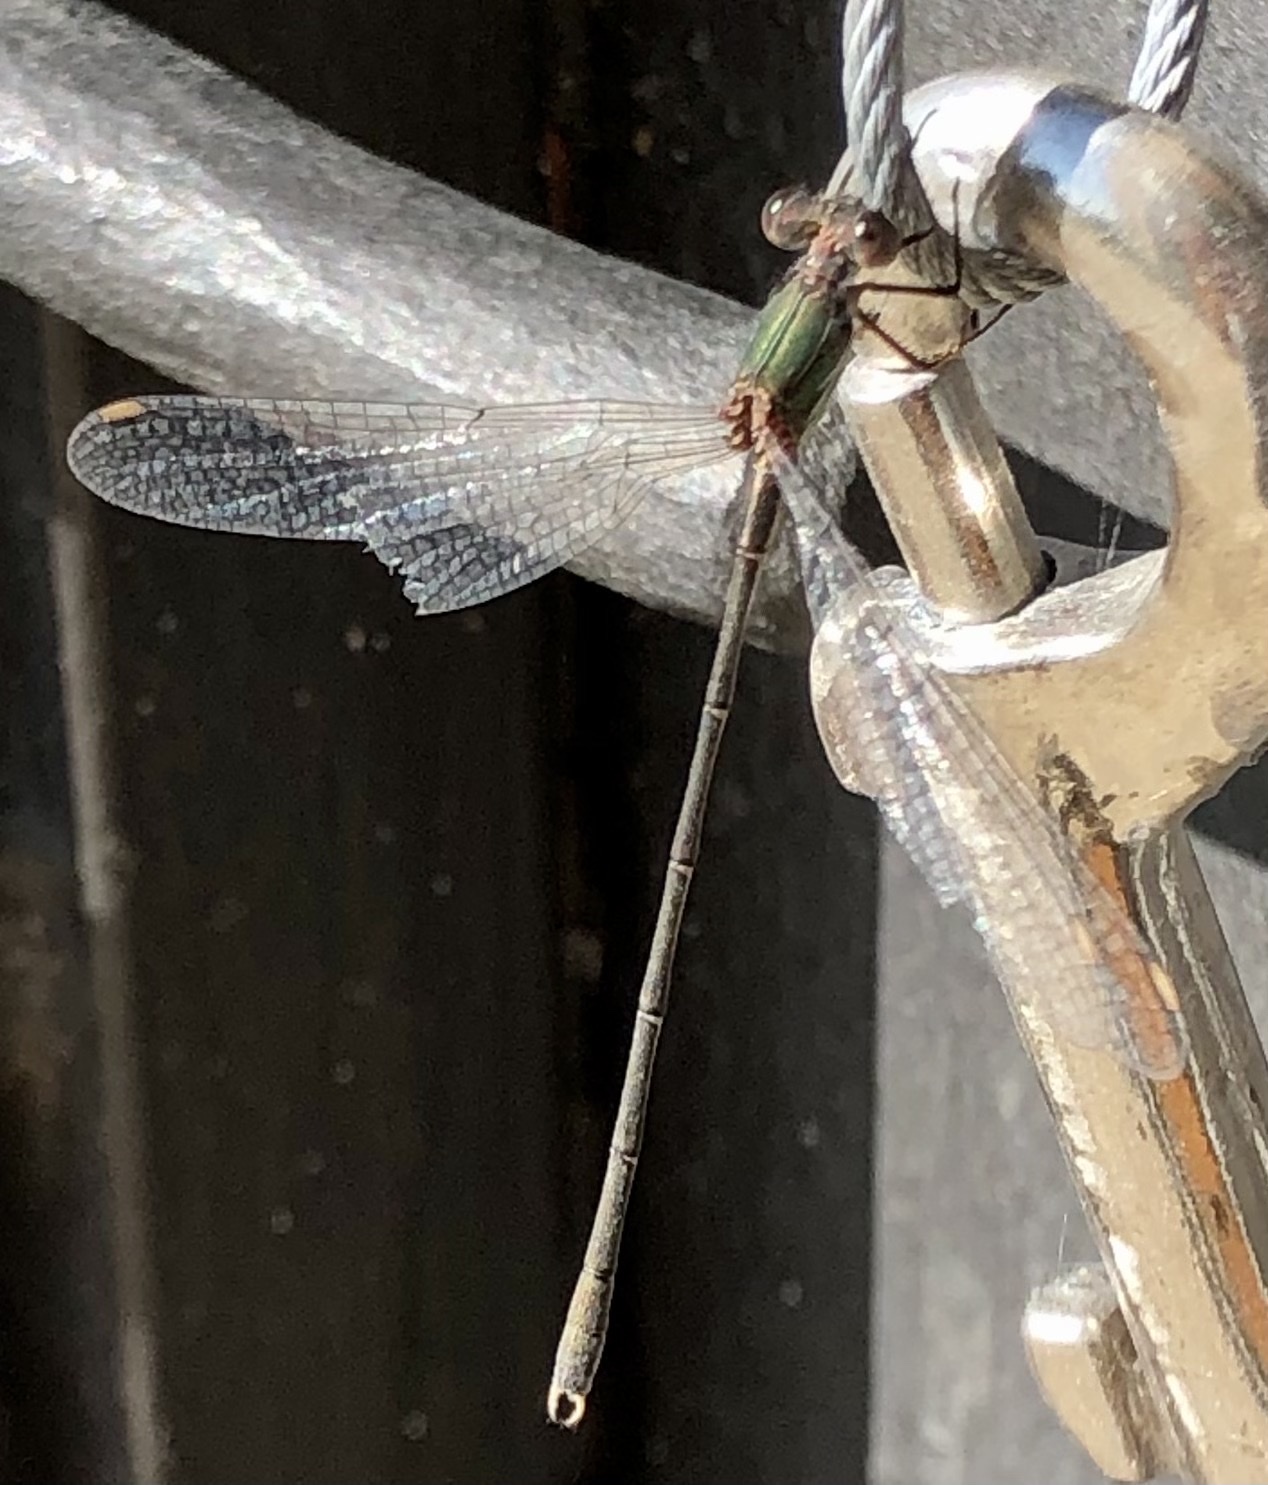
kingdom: Animalia
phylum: Arthropoda
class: Insecta
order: Odonata
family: Lestidae
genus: Chalcolestes
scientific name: Chalcolestes viridis
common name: Green emerald damselfly
